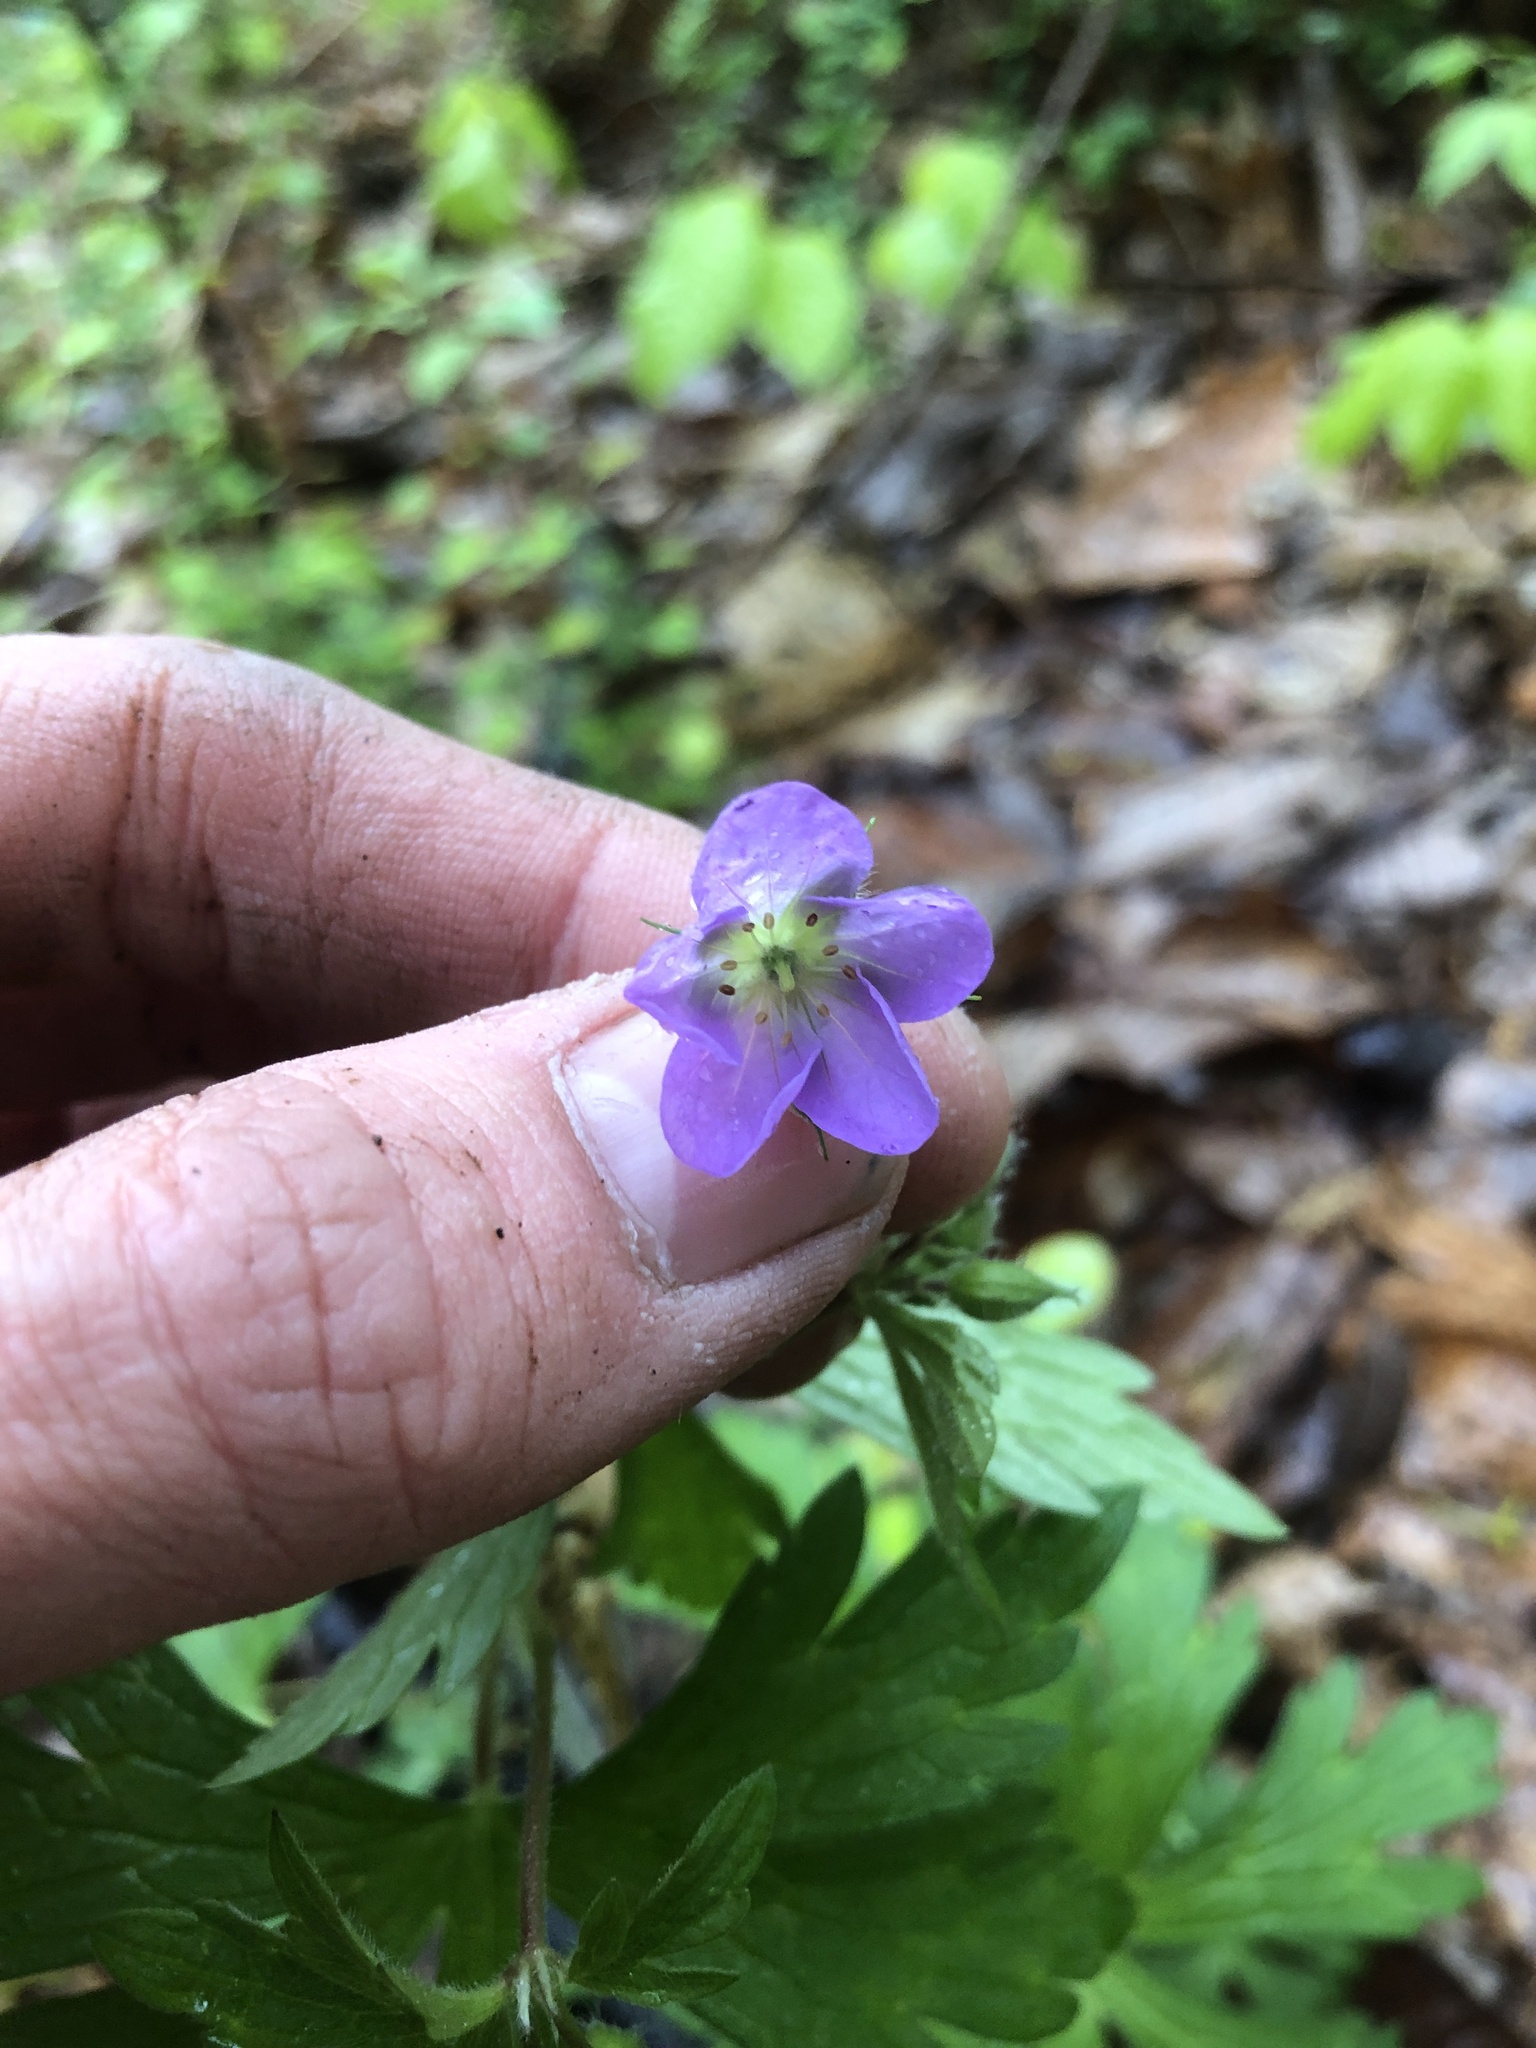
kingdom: Plantae
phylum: Tracheophyta
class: Magnoliopsida
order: Geraniales
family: Geraniaceae
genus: Geranium
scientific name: Geranium maculatum
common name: Spotted geranium
